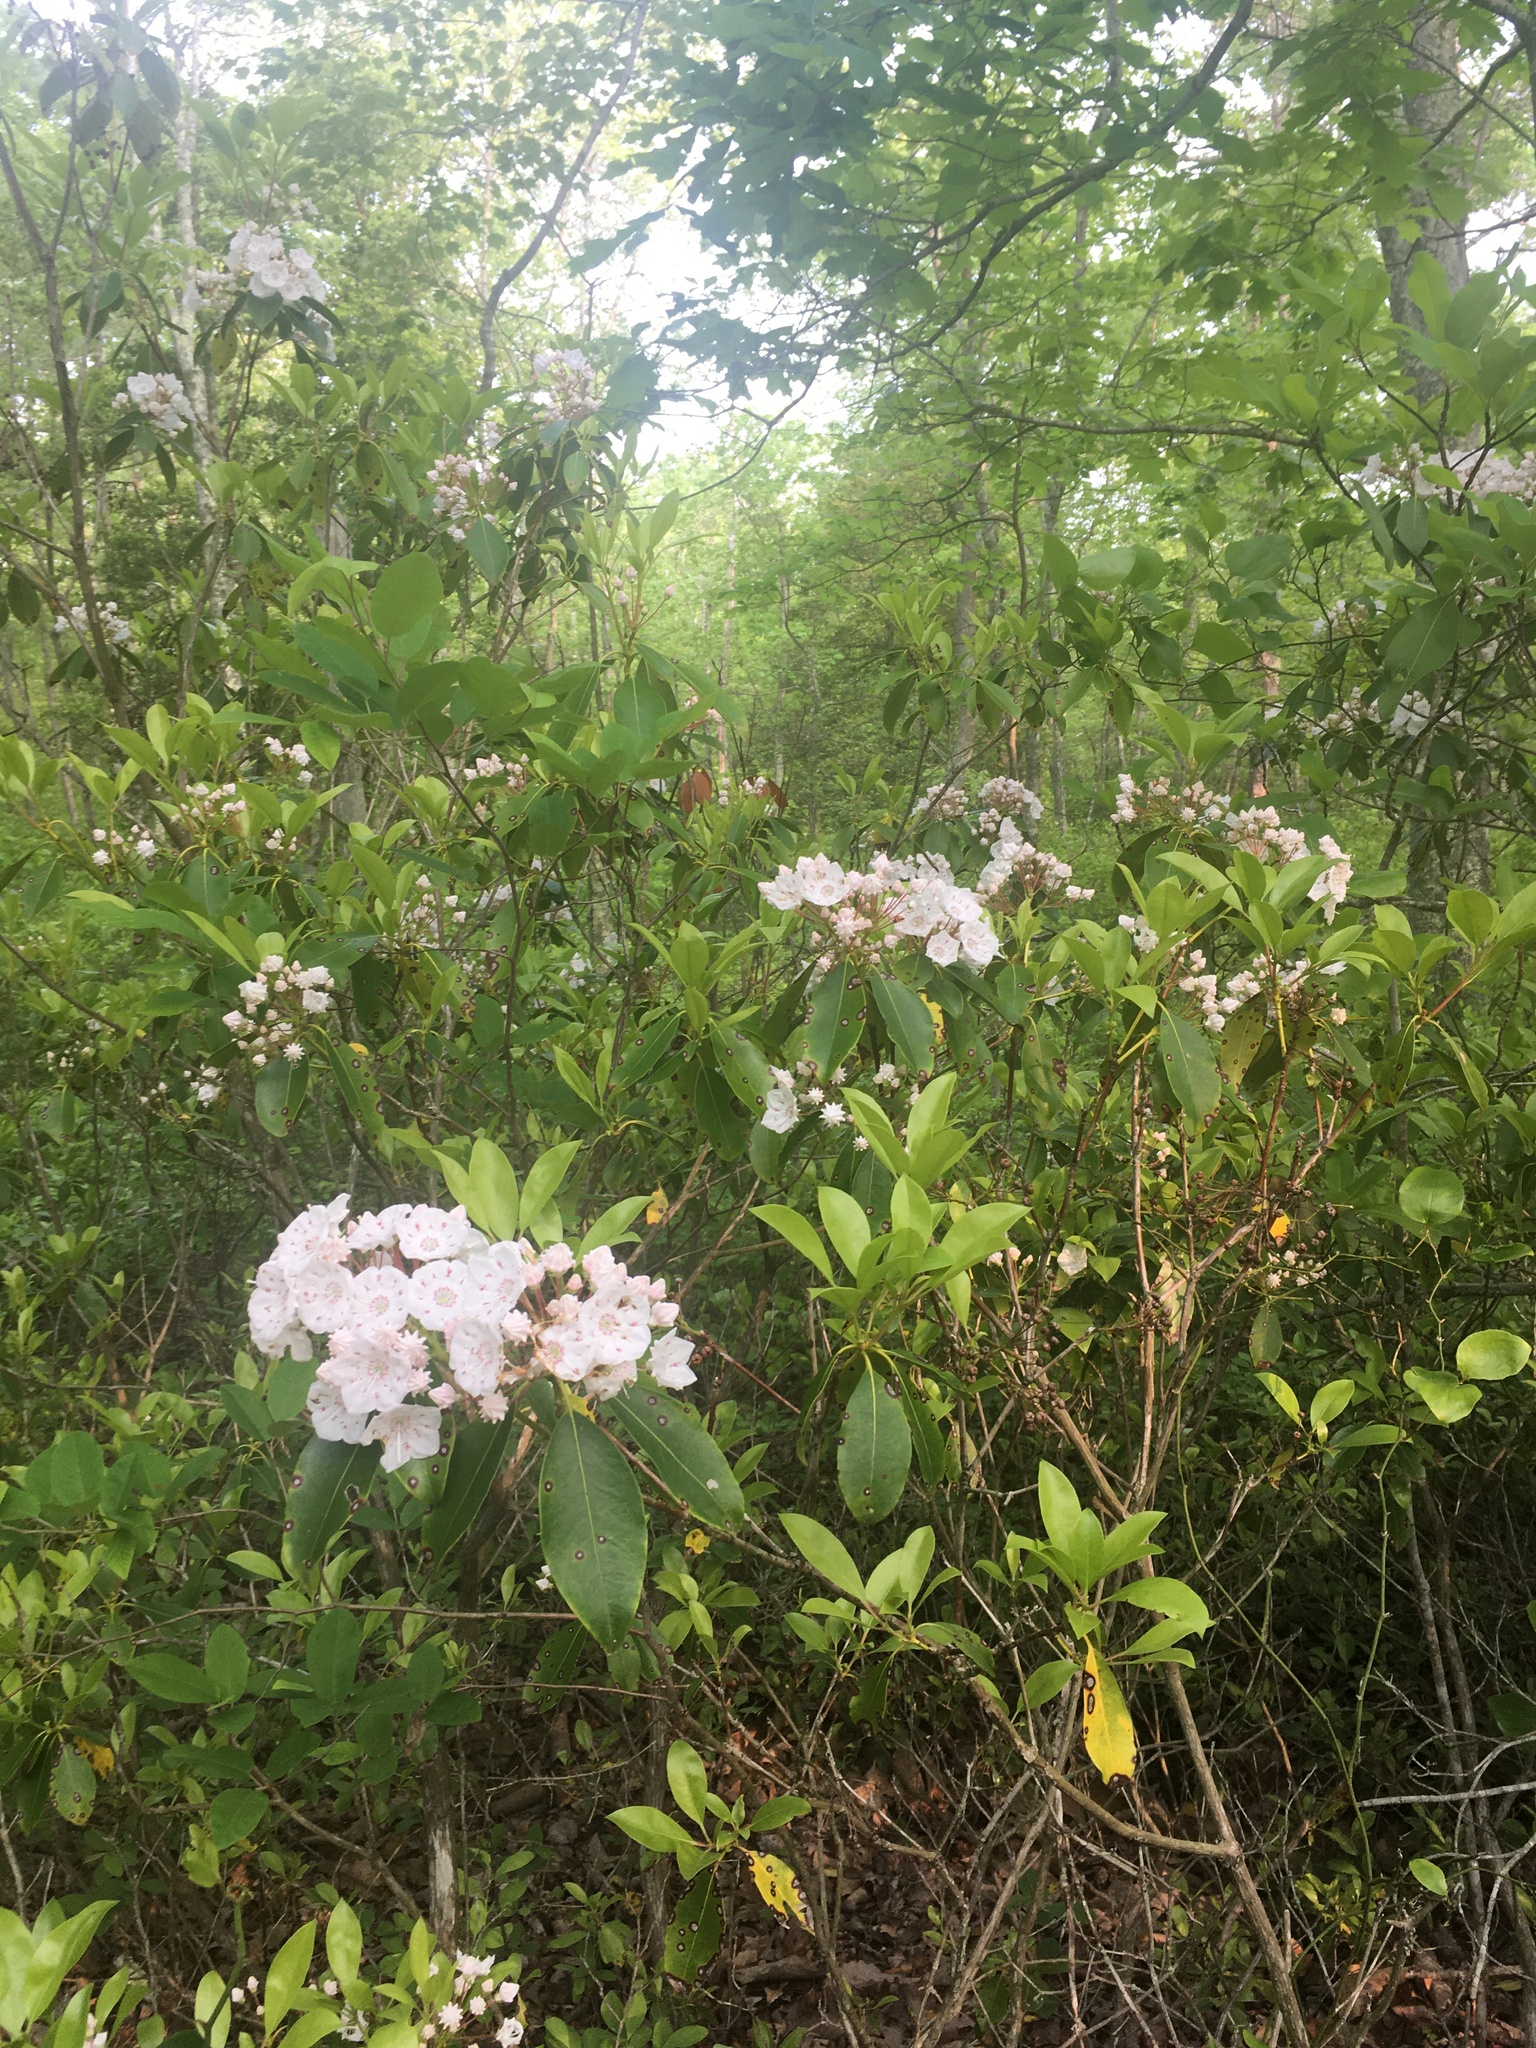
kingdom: Plantae
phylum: Tracheophyta
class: Magnoliopsida
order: Ericales
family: Ericaceae
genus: Kalmia
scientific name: Kalmia latifolia
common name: Mountain-laurel
